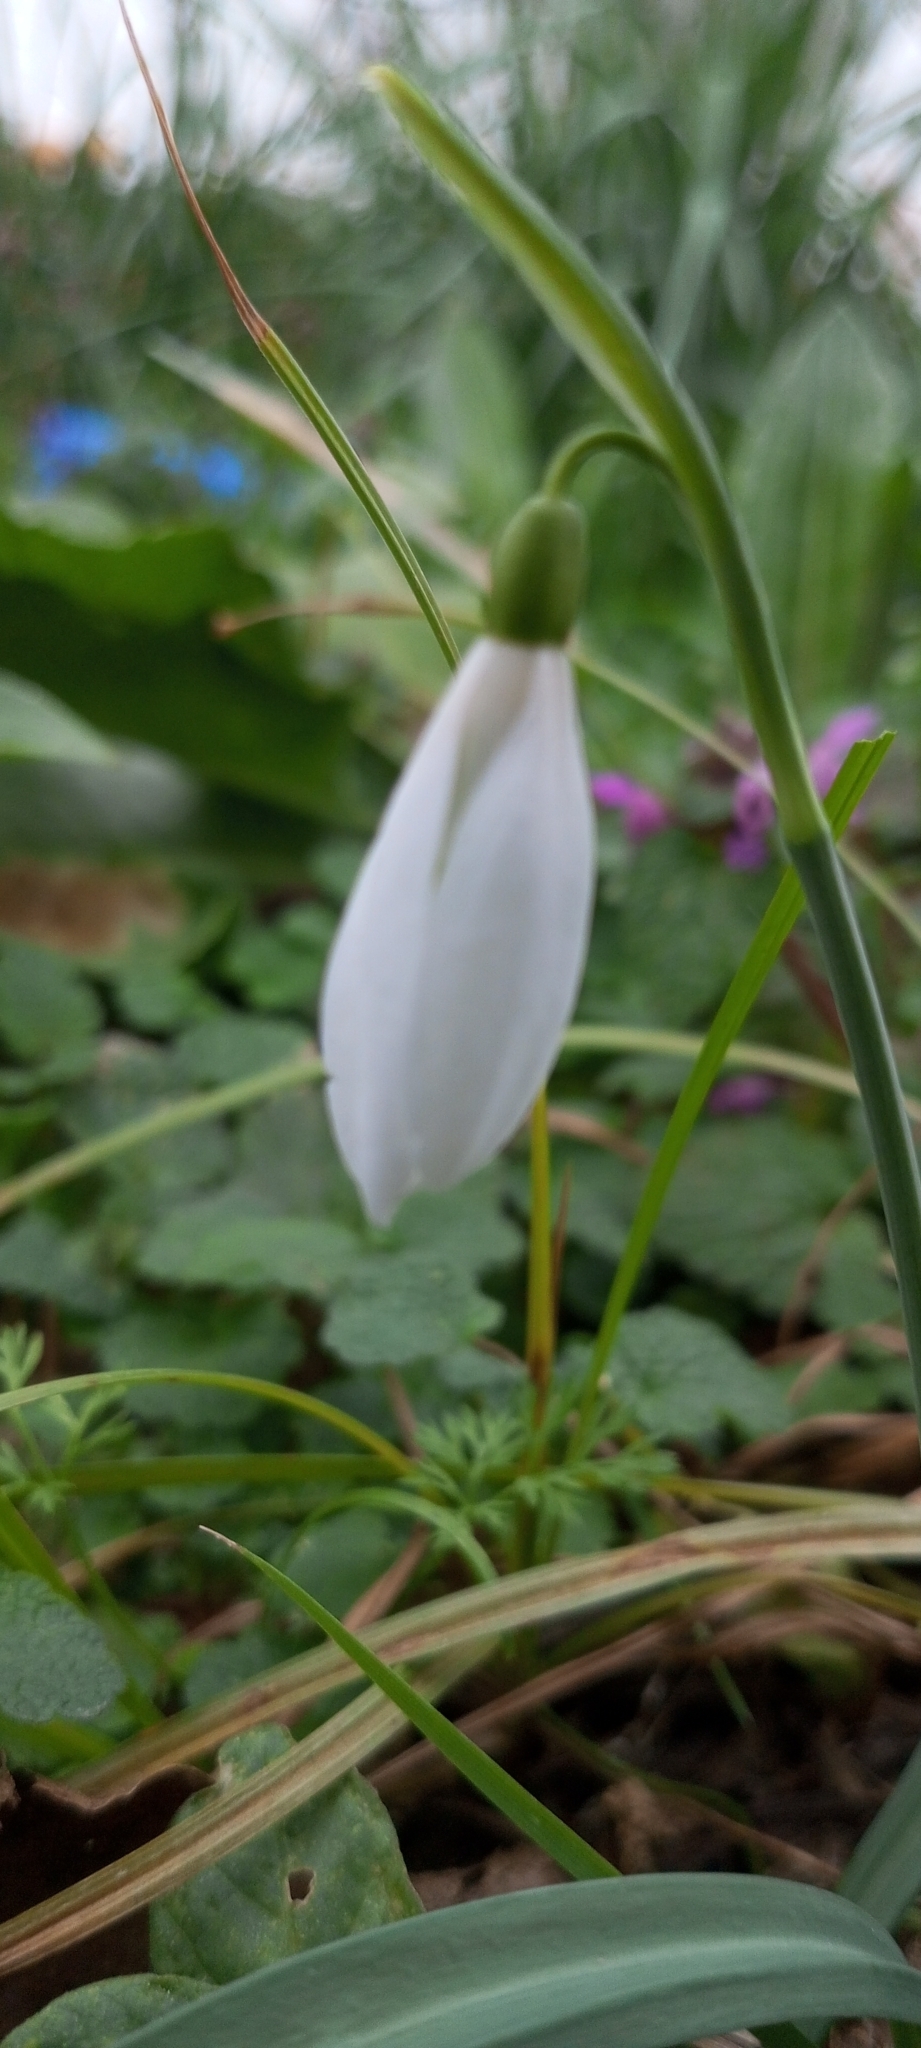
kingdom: Plantae
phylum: Tracheophyta
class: Liliopsida
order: Asparagales
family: Amaryllidaceae
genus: Galanthus
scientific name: Galanthus plicatus
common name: Pleated snowdrop
